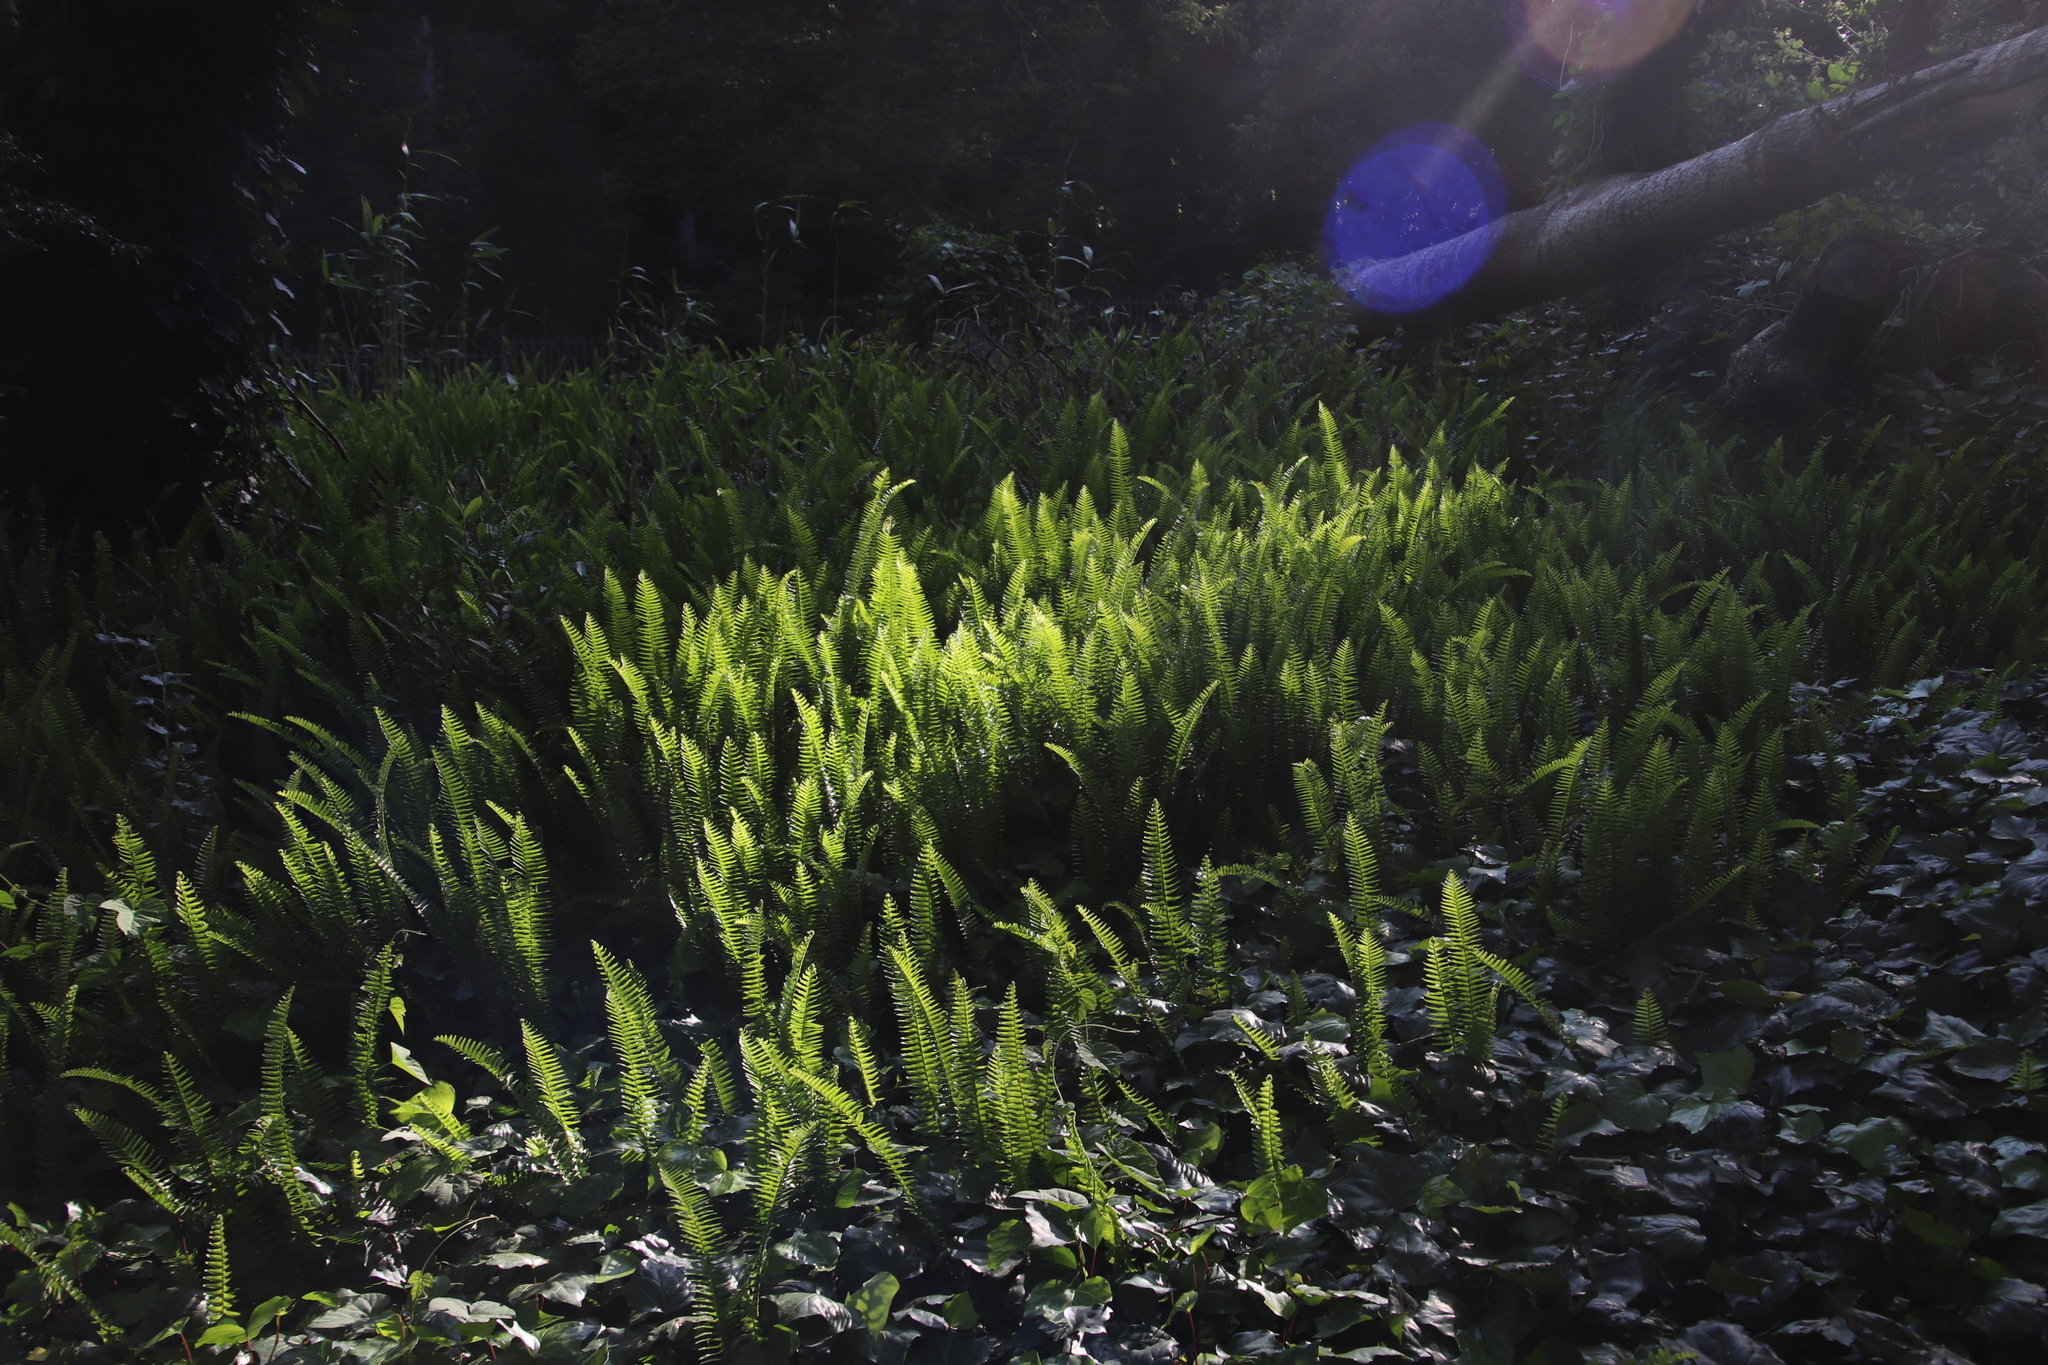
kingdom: Plantae
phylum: Tracheophyta
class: Polypodiopsida
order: Polypodiales
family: Nephrolepidaceae
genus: Nephrolepis
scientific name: Nephrolepis cordifolia
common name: Narrow swordfern
